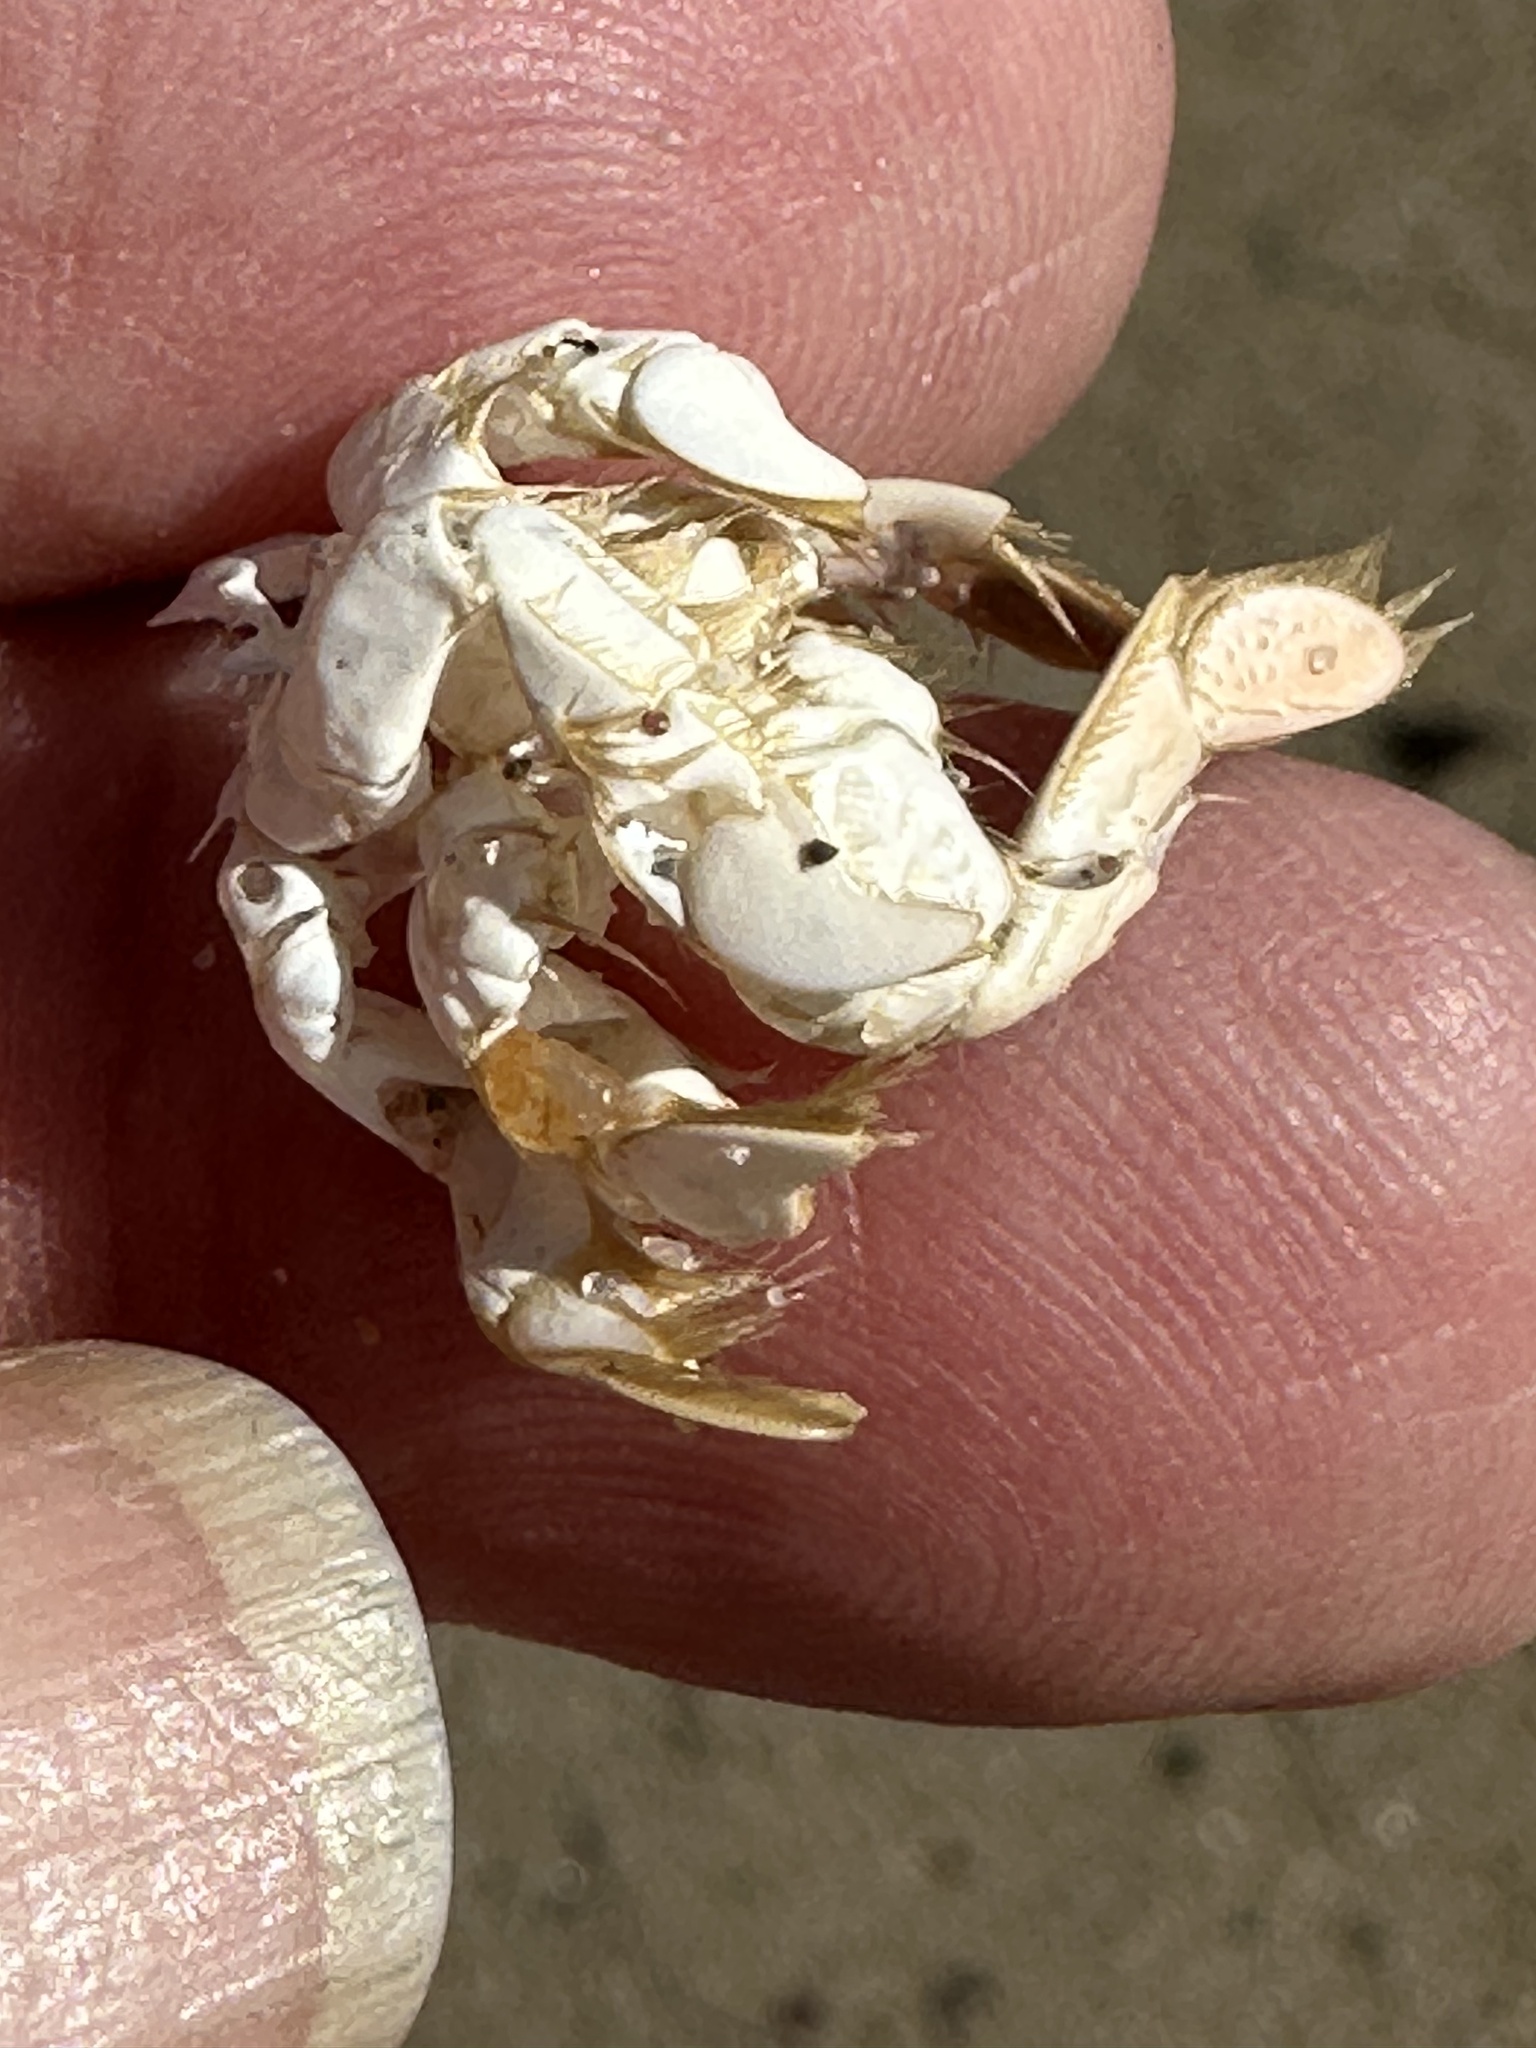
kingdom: Animalia
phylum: Arthropoda
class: Malacostraca
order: Decapoda
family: Hippidae
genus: Emerita
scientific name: Emerita analoga
